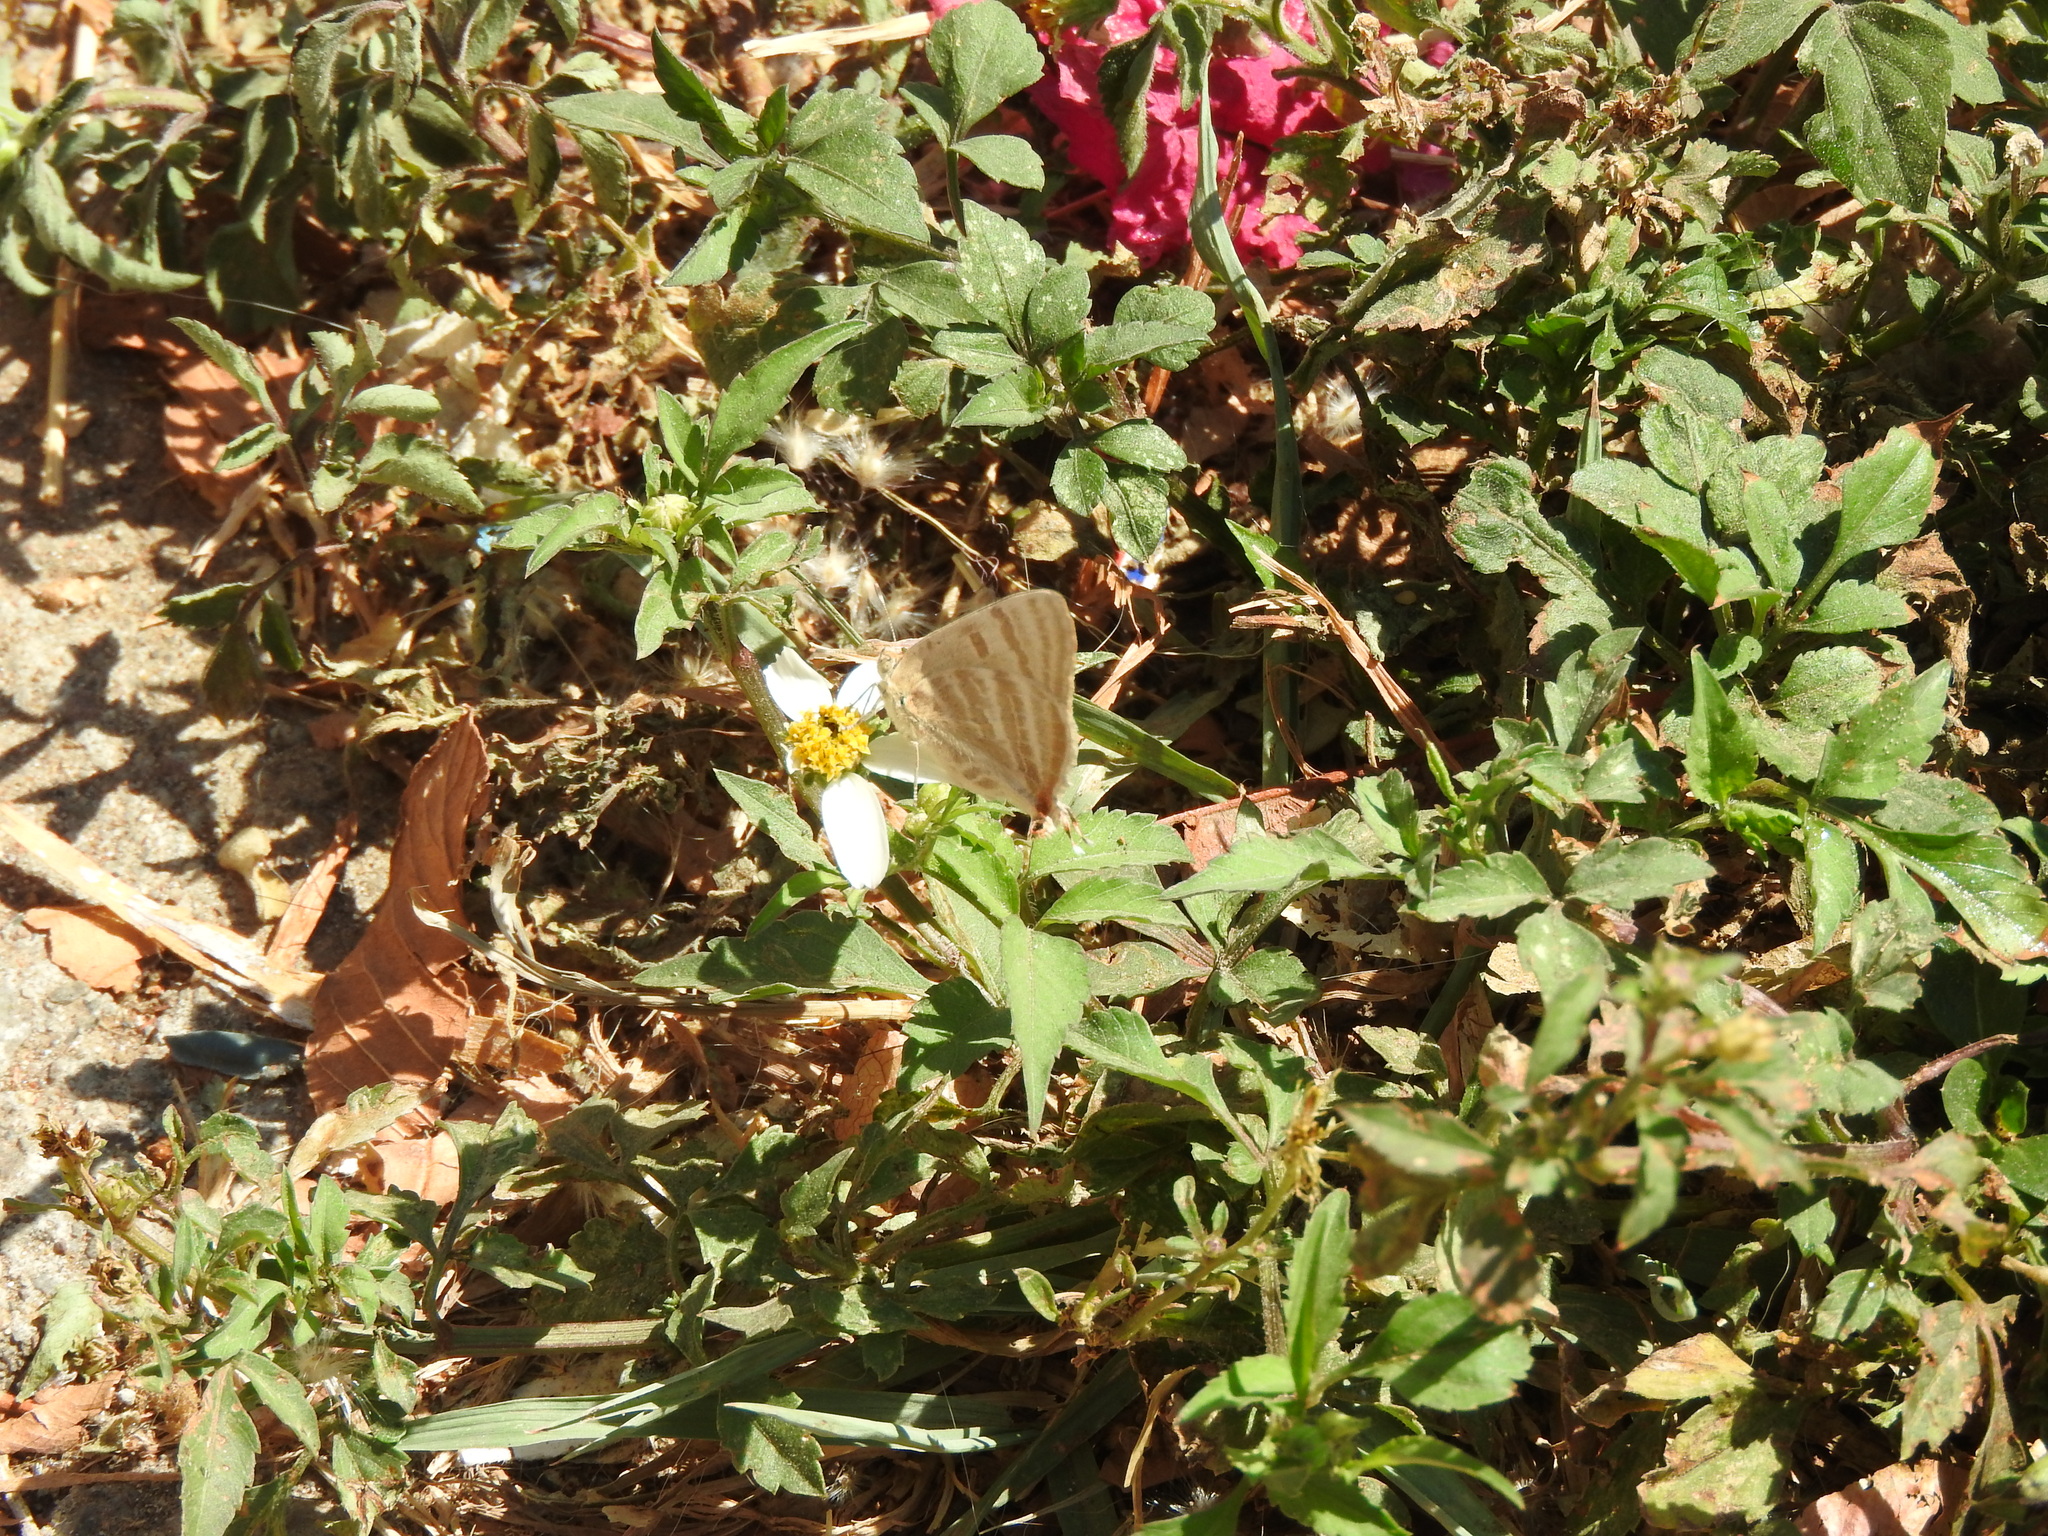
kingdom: Animalia
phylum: Arthropoda
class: Insecta
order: Lepidoptera
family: Lycaenidae
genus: Dolymorpha
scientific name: Dolymorpha jada
